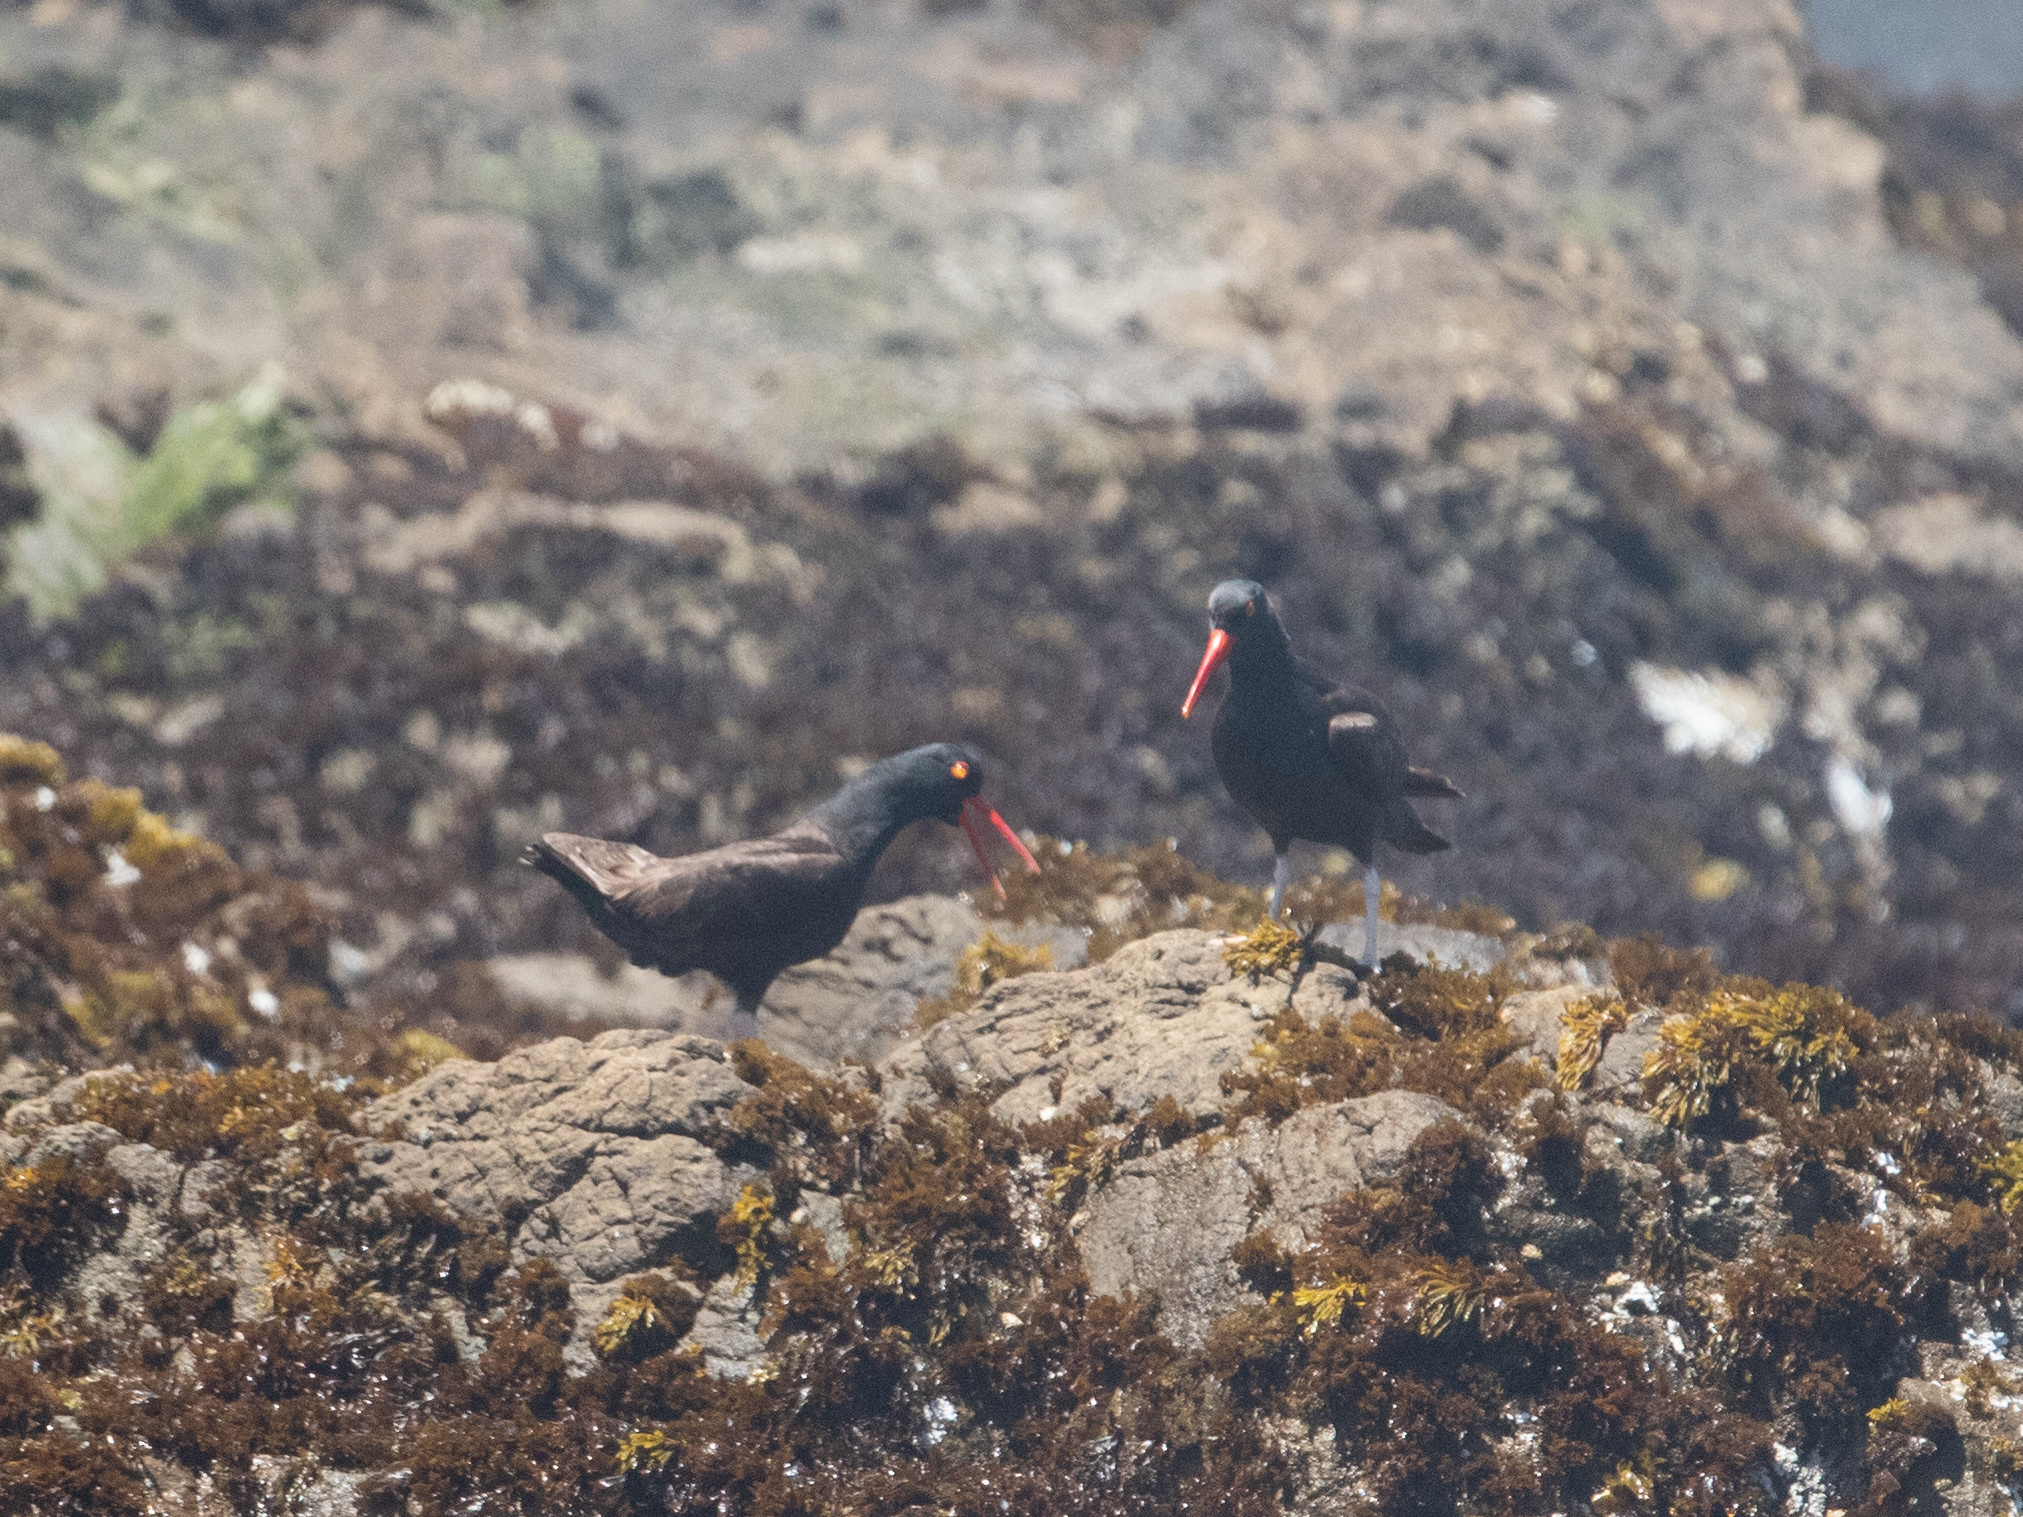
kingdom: Animalia
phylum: Chordata
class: Aves
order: Charadriiformes
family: Haematopodidae
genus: Haematopus
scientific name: Haematopus bachmani
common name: Black oystercatcher
